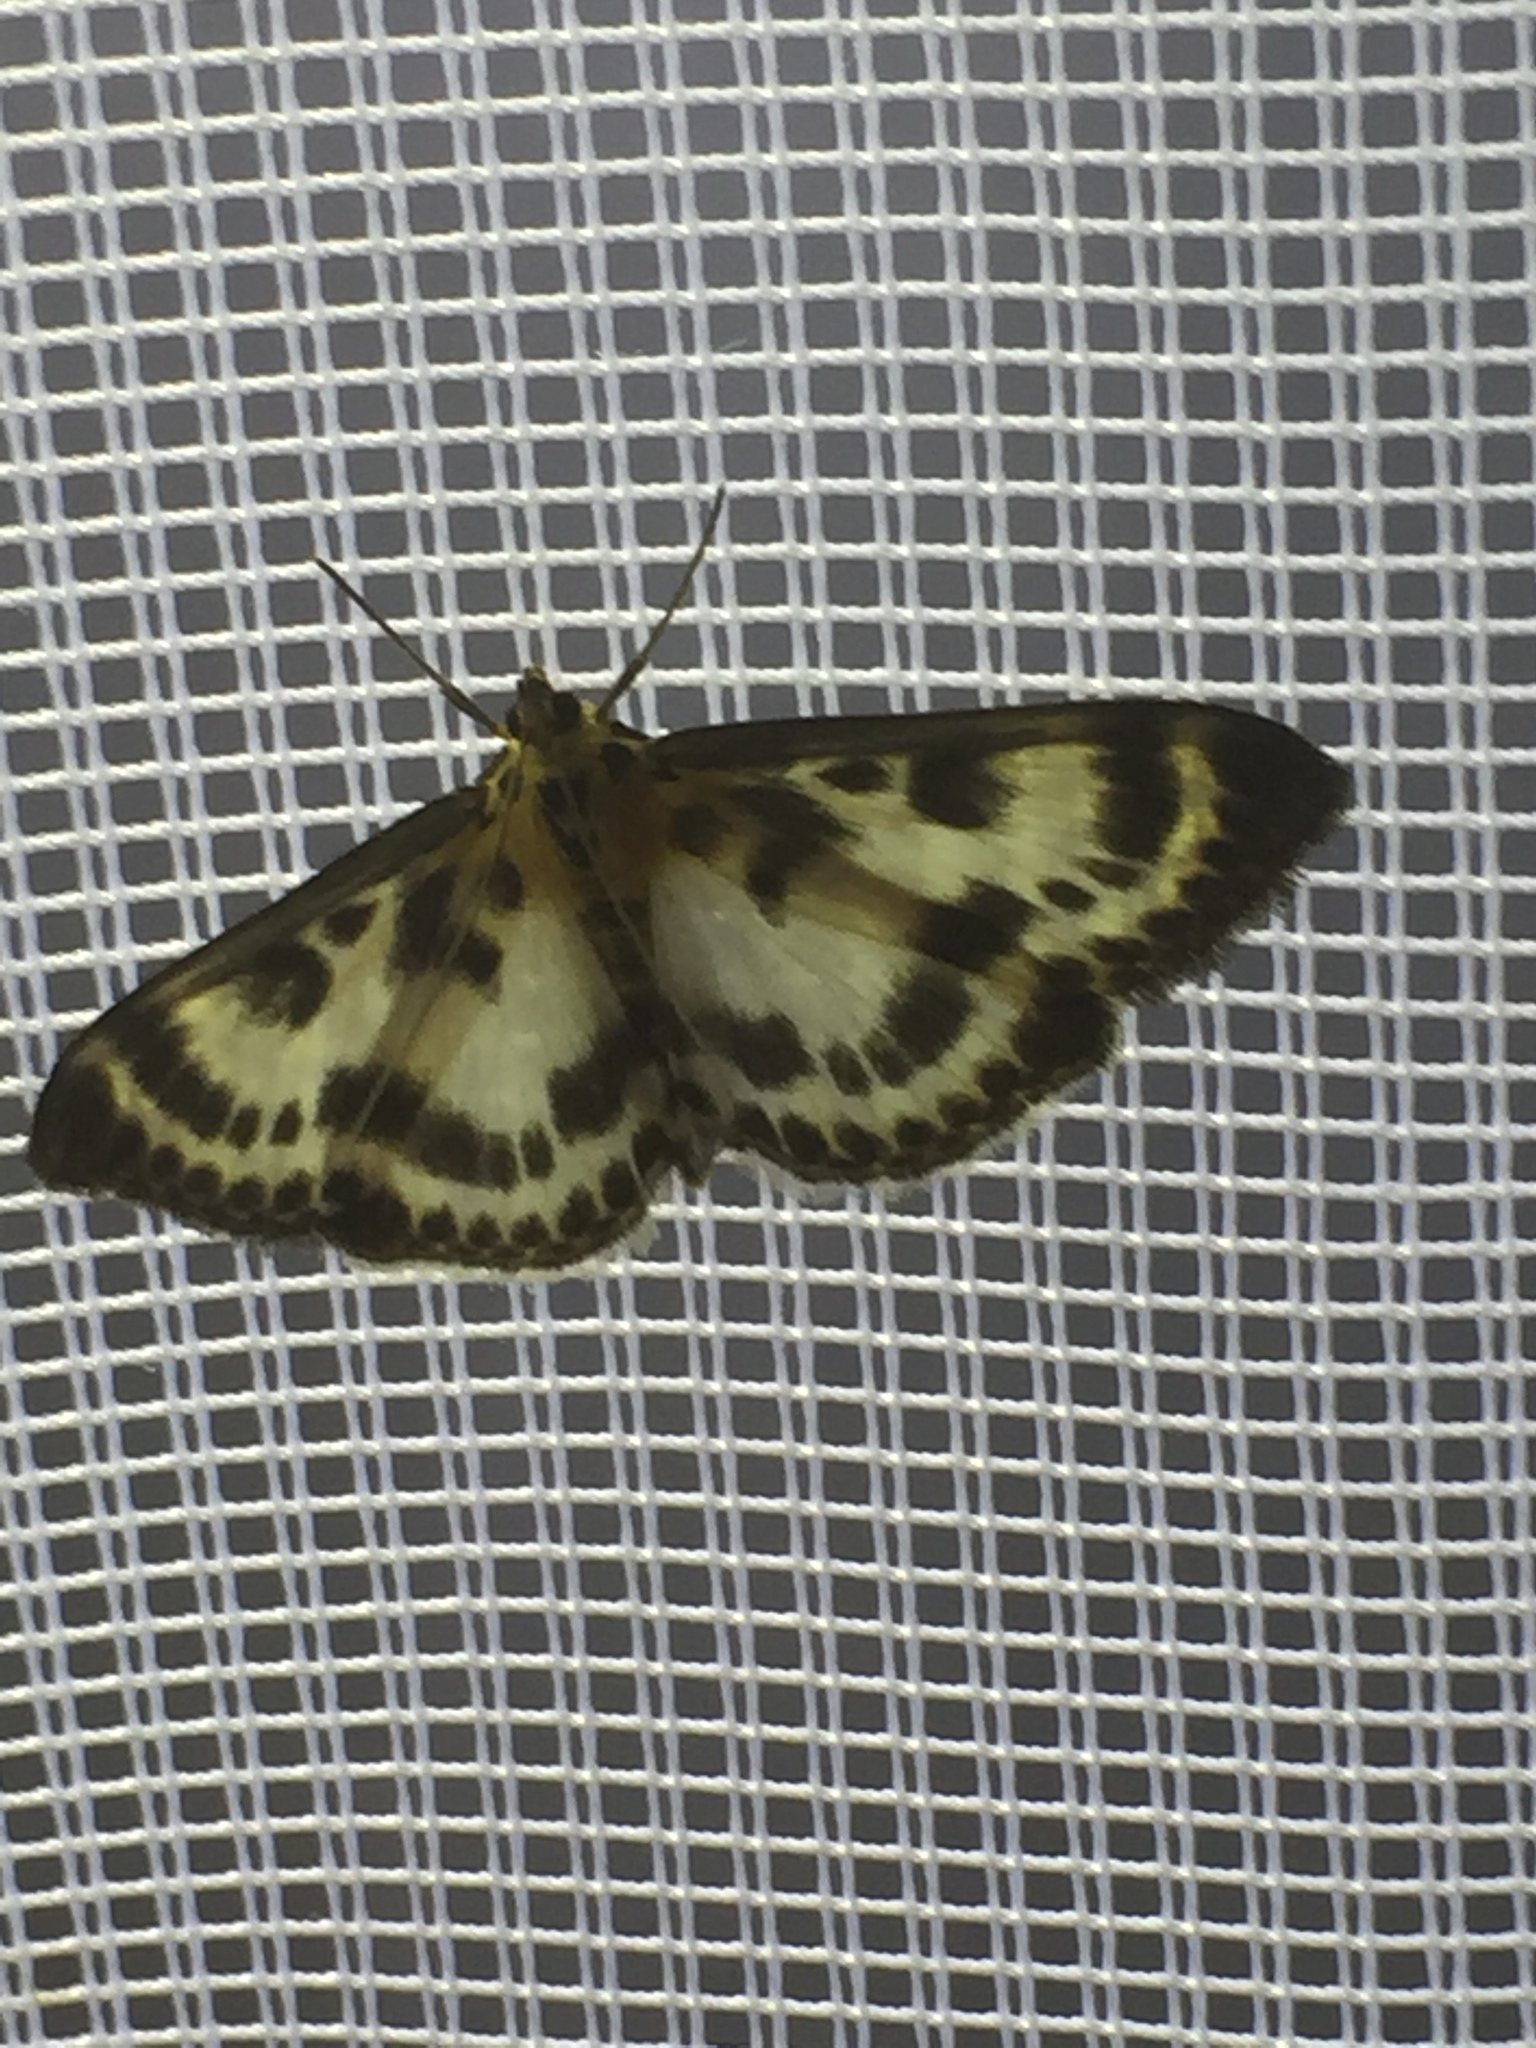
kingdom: Animalia
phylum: Arthropoda
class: Insecta
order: Lepidoptera
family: Crambidae
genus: Anania
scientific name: Anania hortulata
